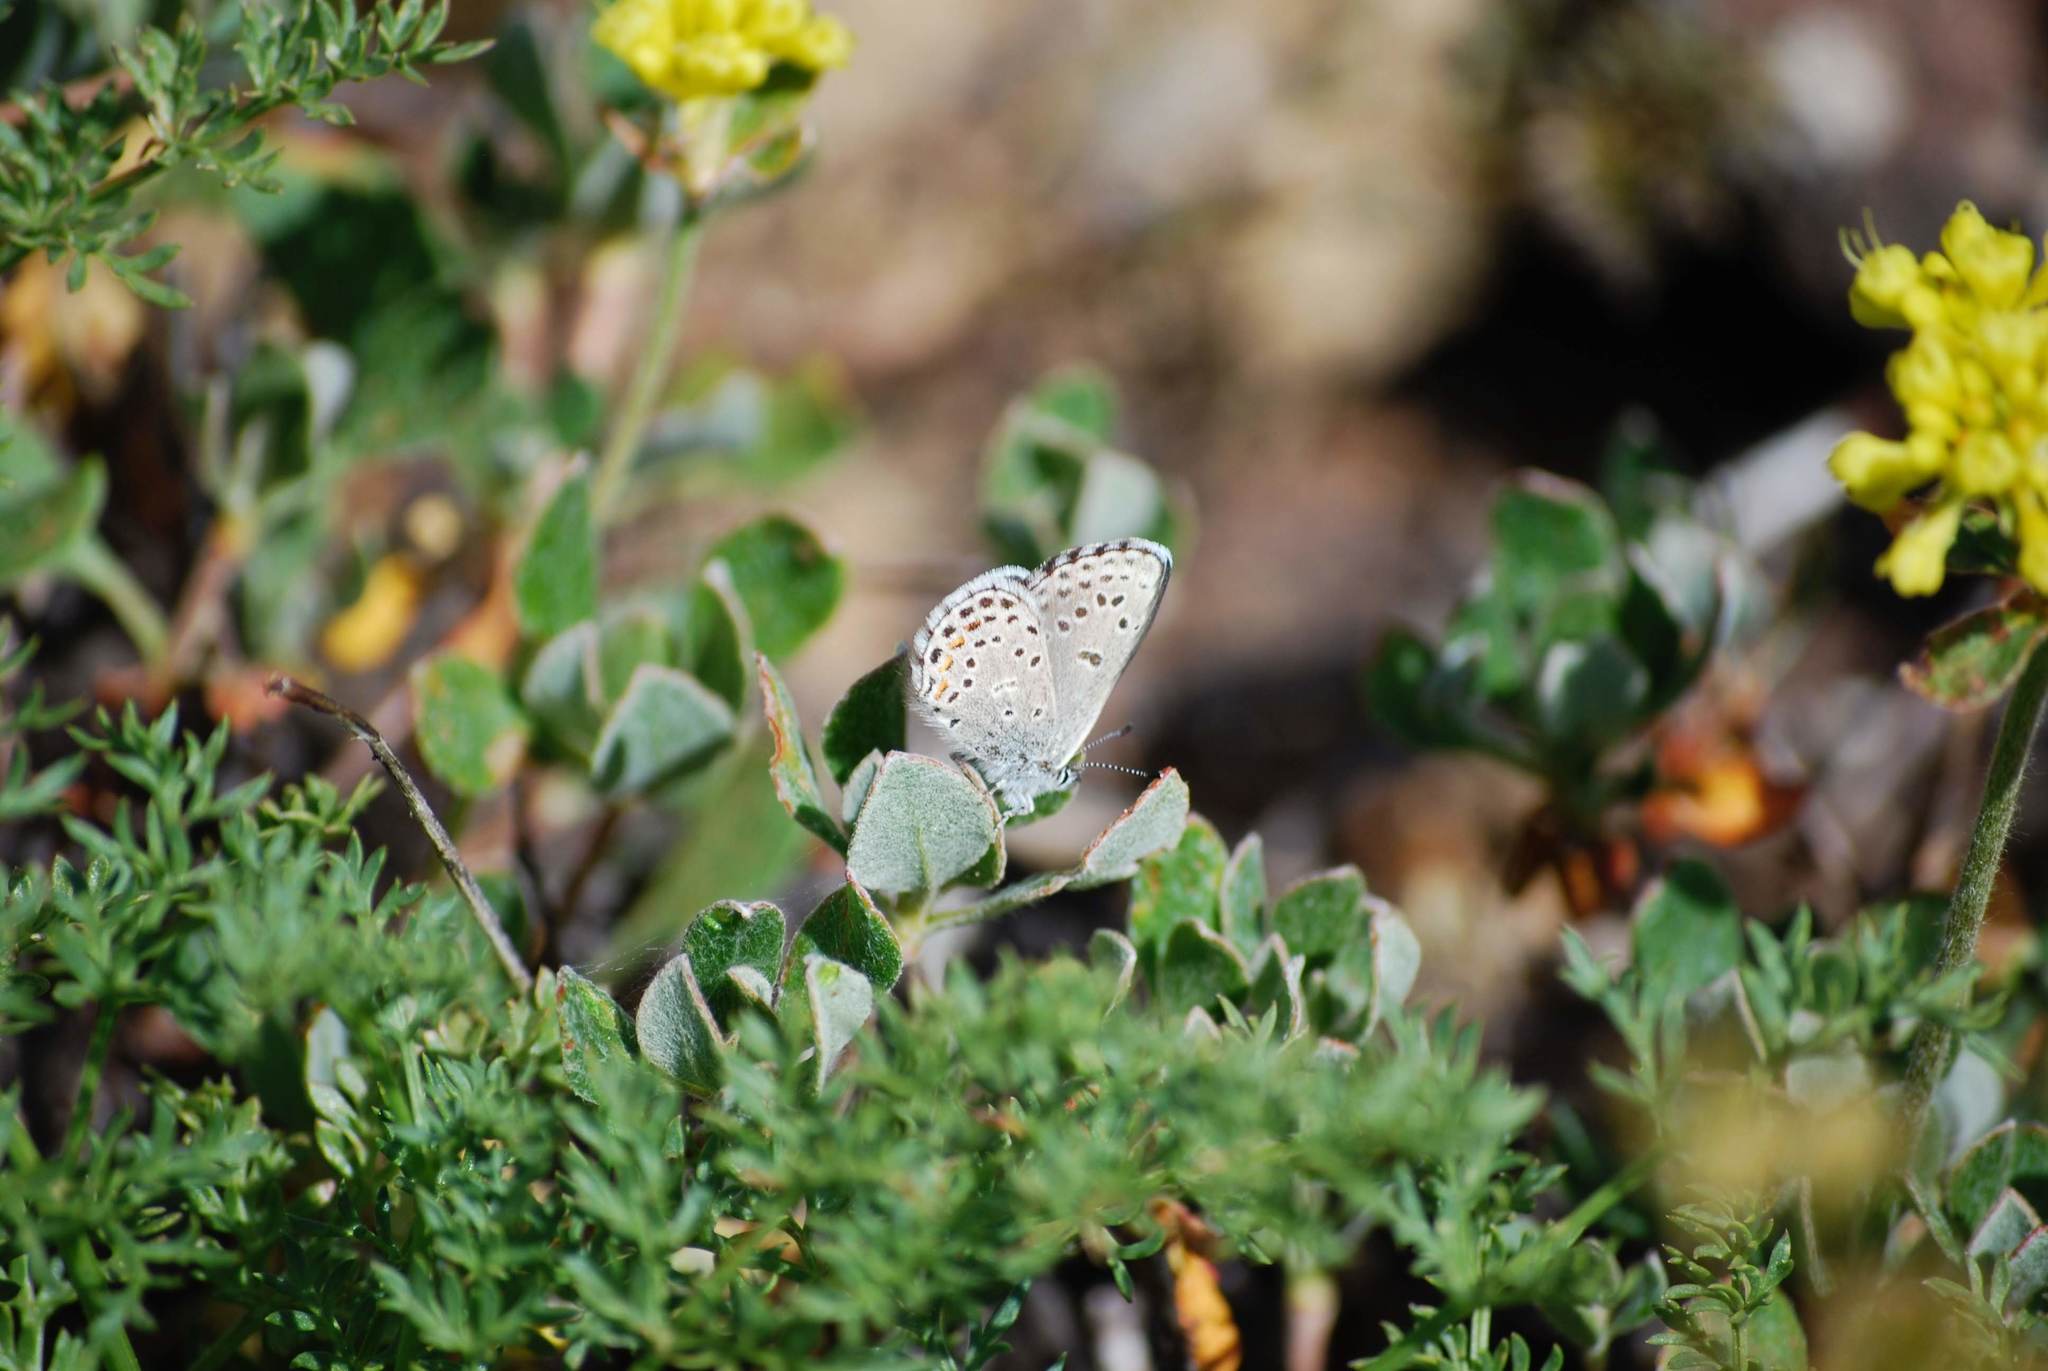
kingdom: Animalia
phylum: Arthropoda
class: Insecta
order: Lepidoptera
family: Lycaenidae
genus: Philotes
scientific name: Philotes intermedia
